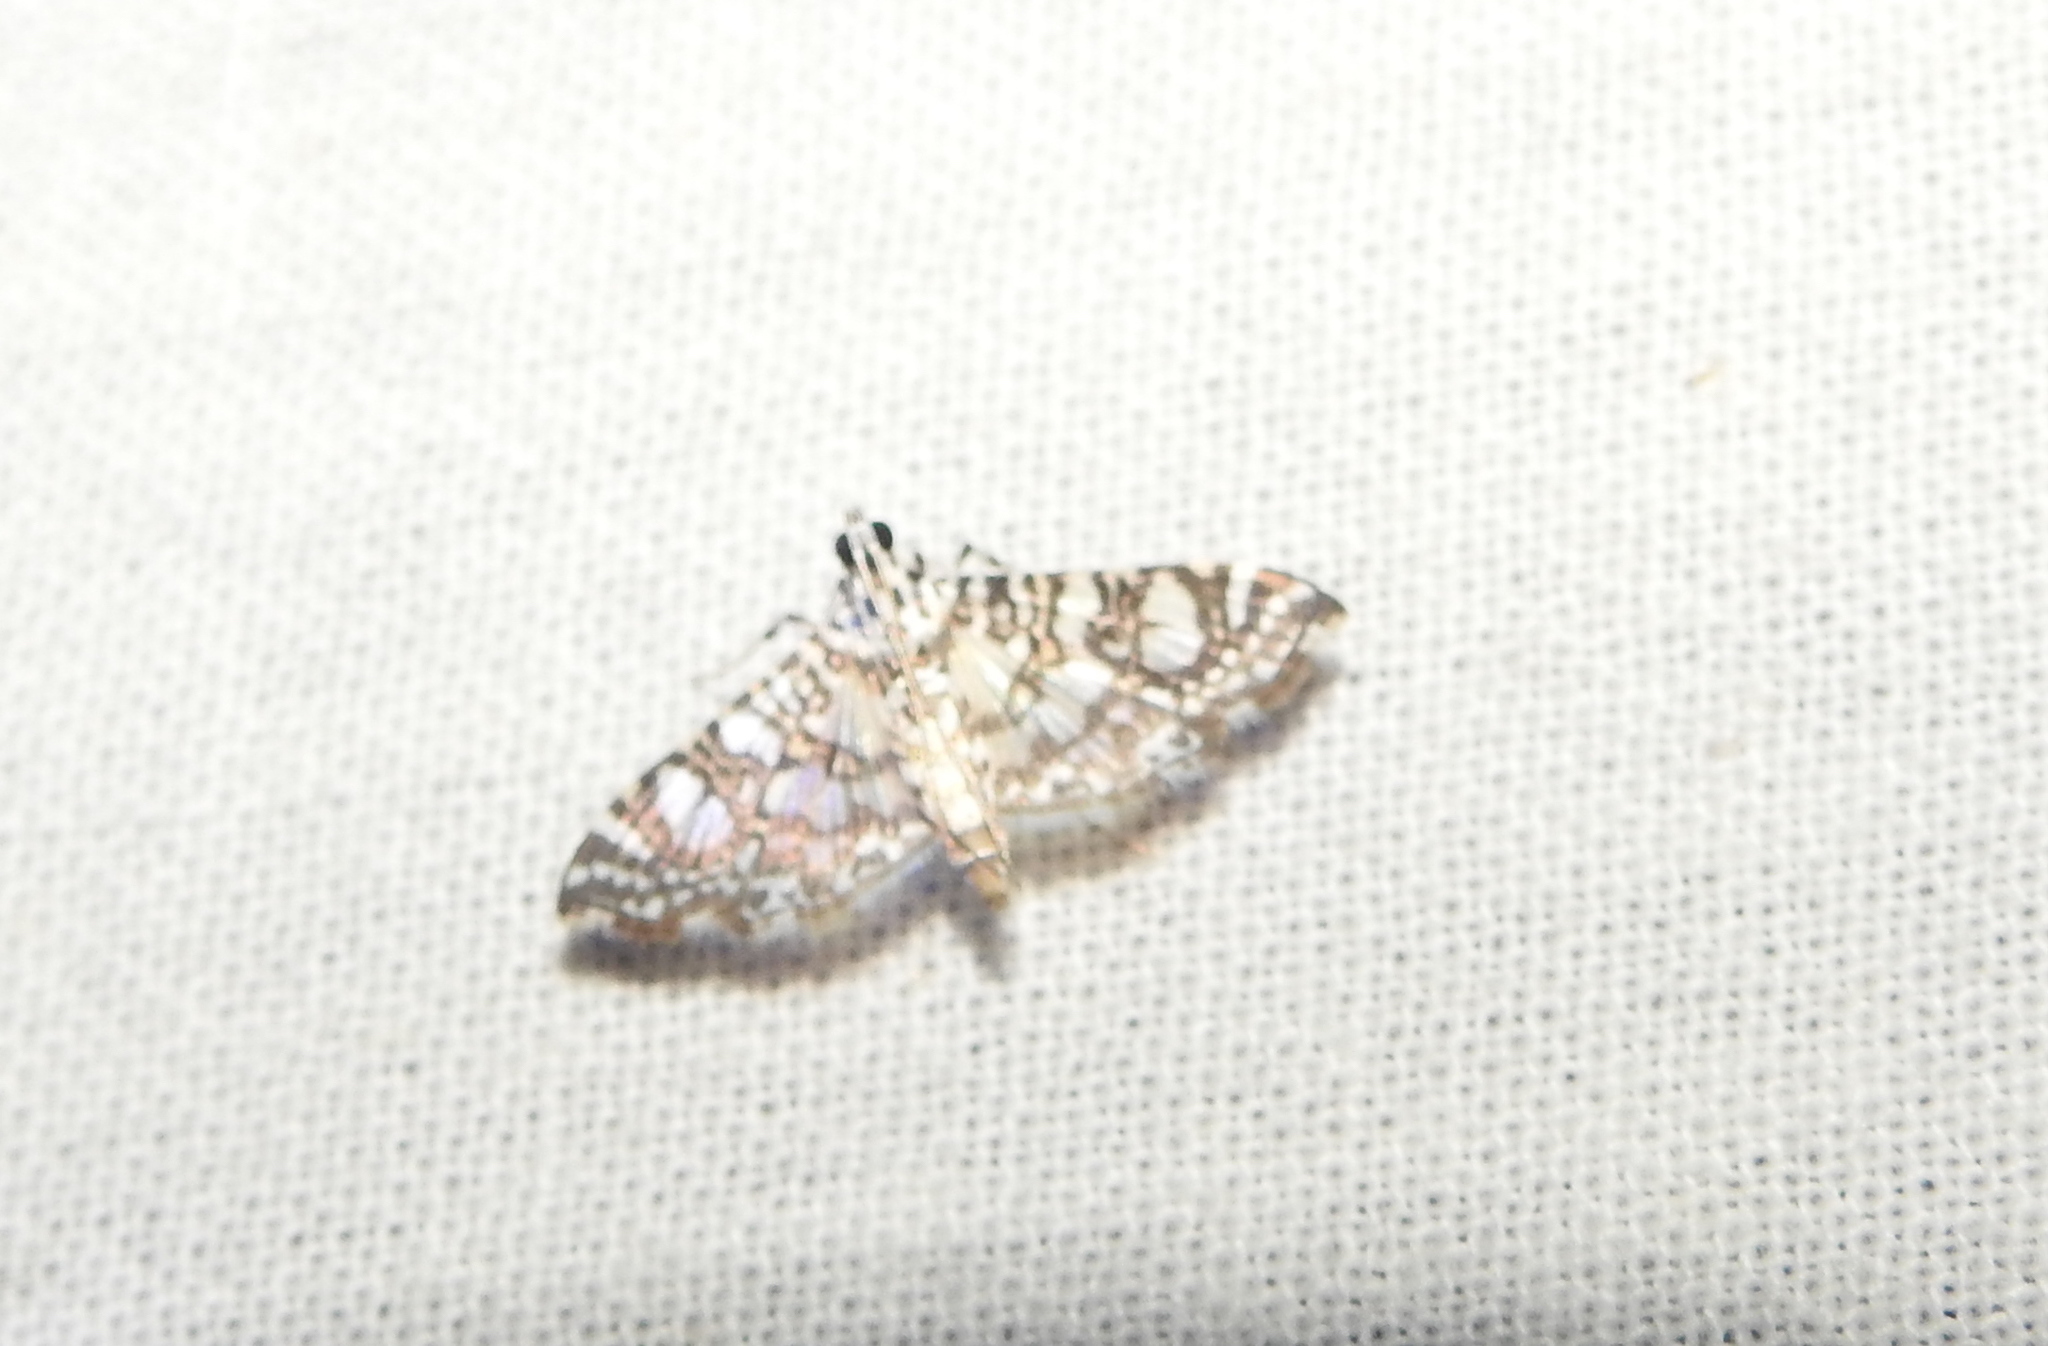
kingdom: Animalia
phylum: Arthropoda
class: Insecta
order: Lepidoptera
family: Crambidae
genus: Glyphodes
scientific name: Glyphodes onychinalis
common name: Swan plant moth
